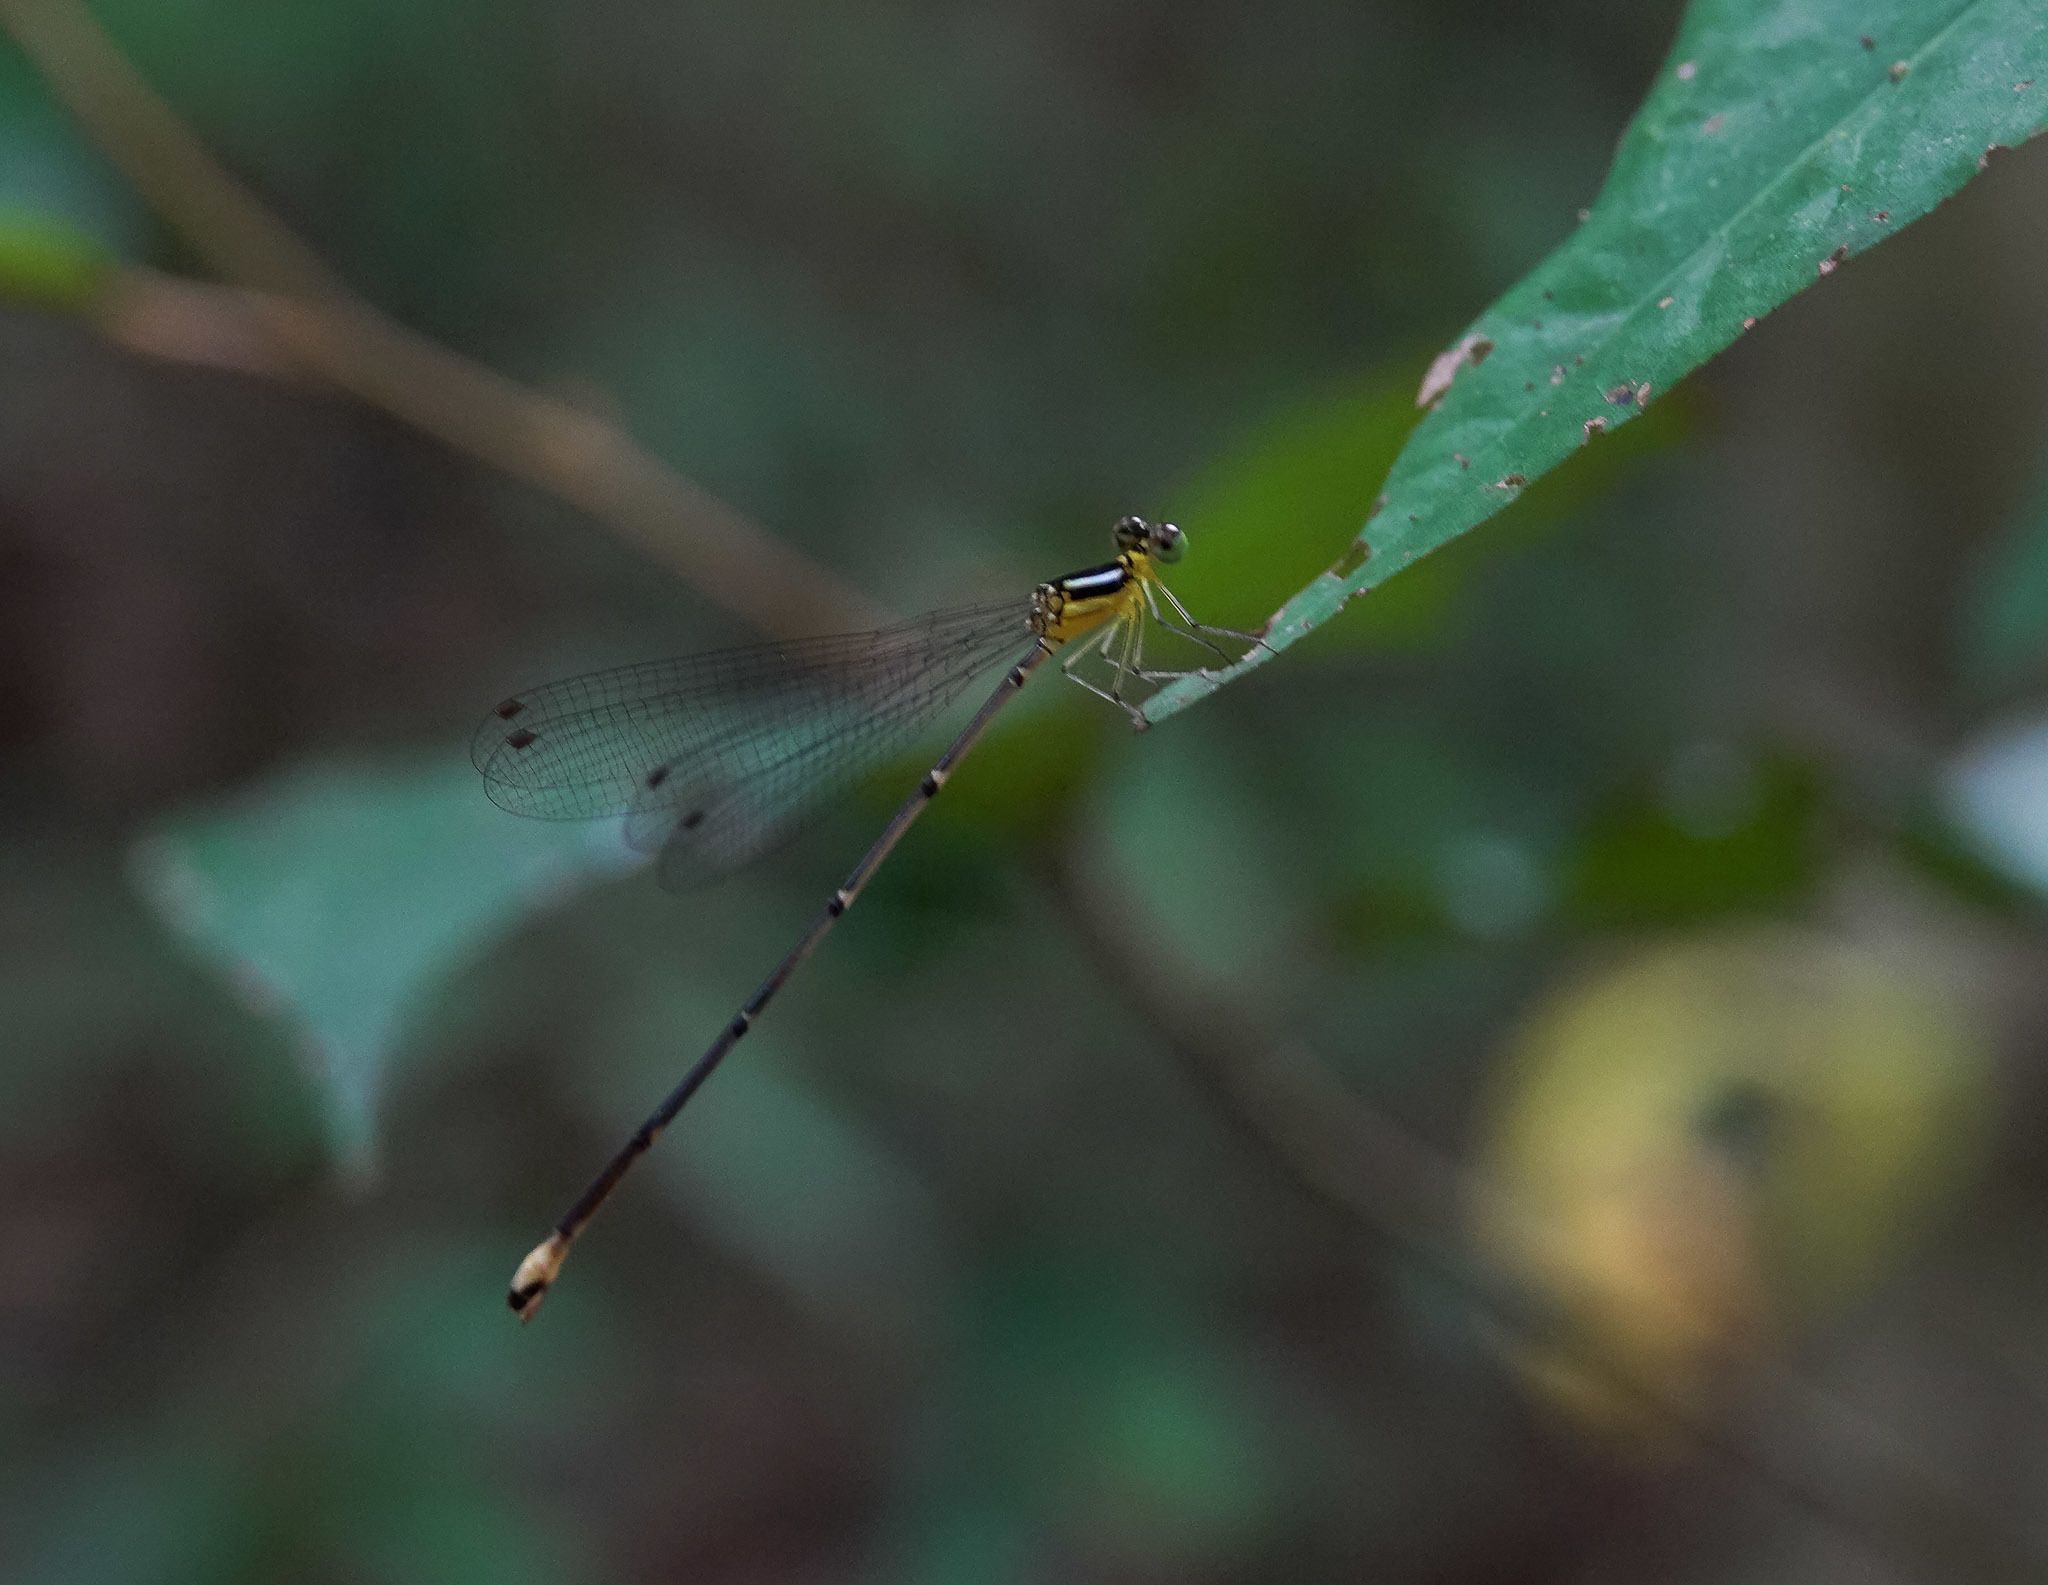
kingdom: Animalia
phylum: Arthropoda
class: Insecta
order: Odonata
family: Platycnemididae
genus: Coeliccia
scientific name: Coeliccia schmidti
